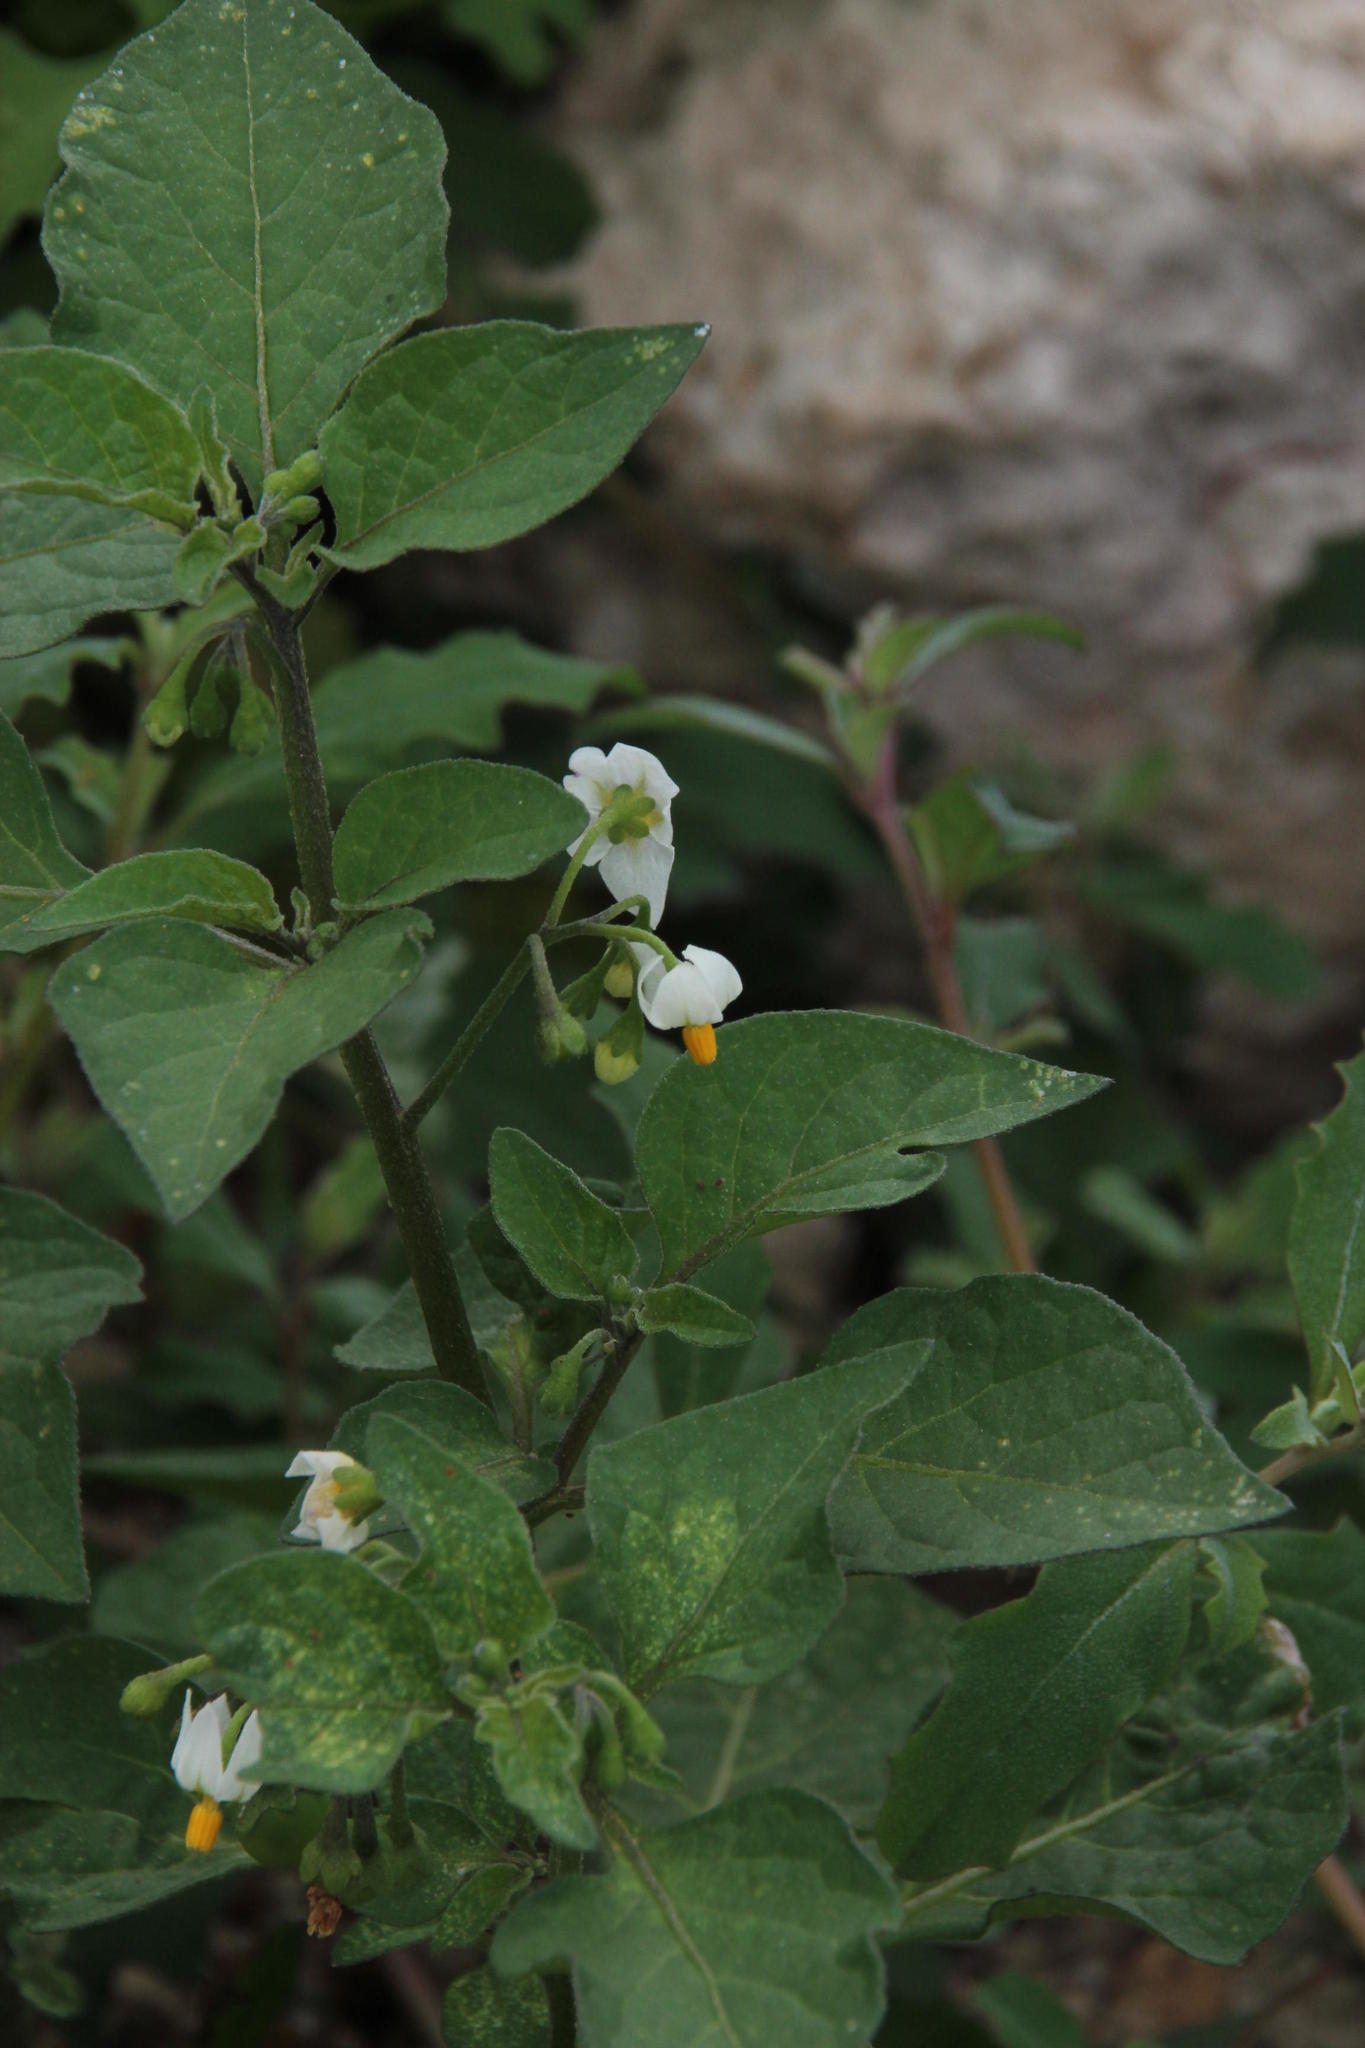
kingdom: Plantae
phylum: Tracheophyta
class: Magnoliopsida
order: Solanales
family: Solanaceae
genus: Solanum
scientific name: Solanum nigrum
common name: Black nightshade
